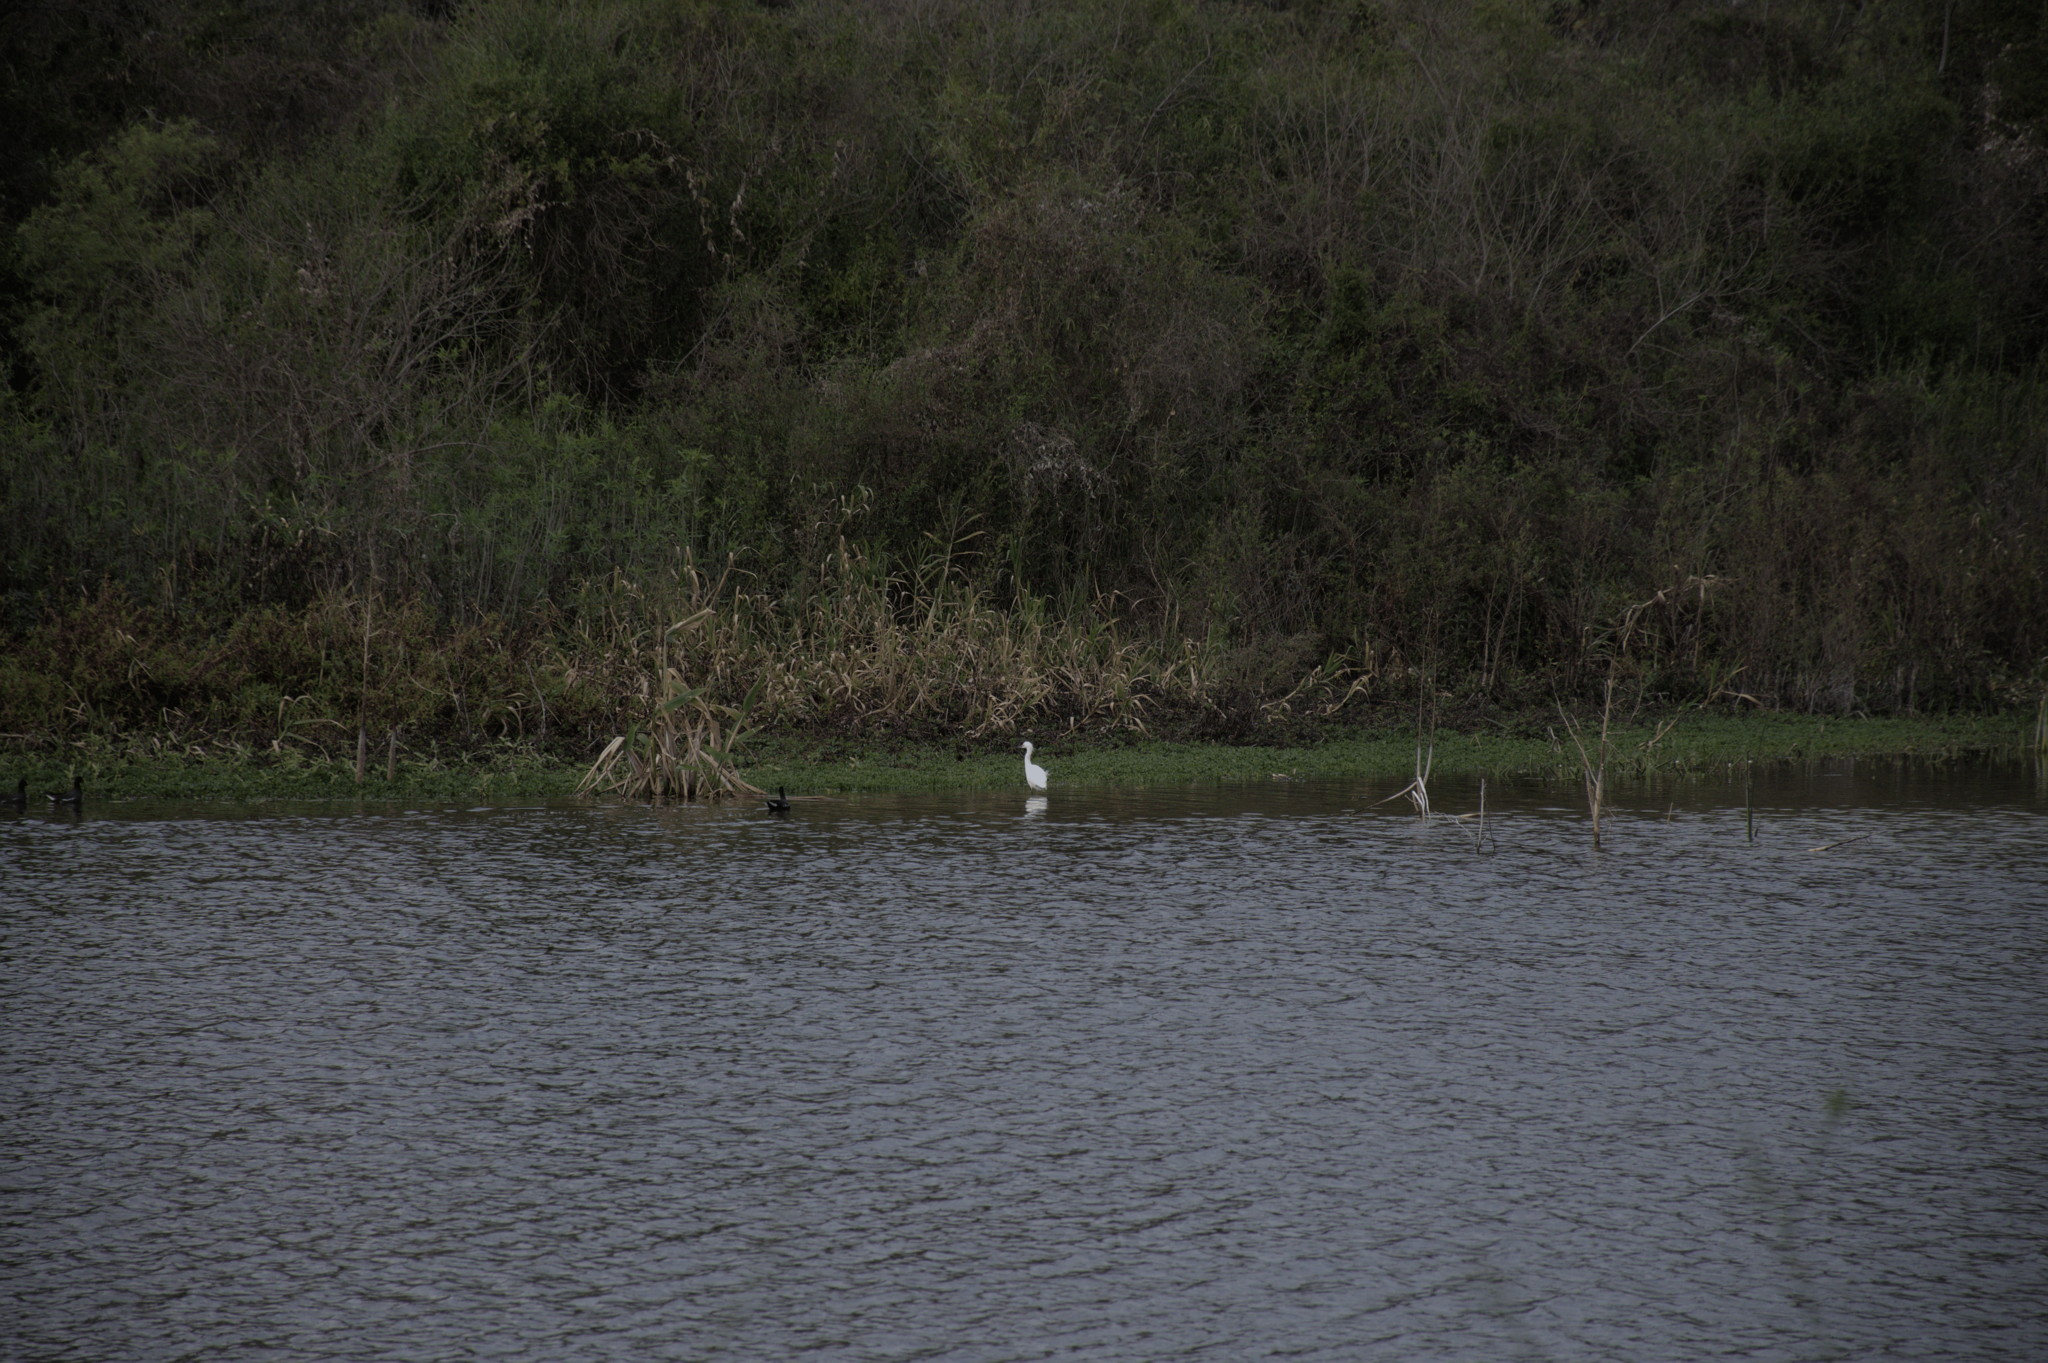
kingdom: Animalia
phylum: Chordata
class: Aves
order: Pelecaniformes
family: Ardeidae
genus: Egretta
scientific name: Egretta thula
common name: Snowy egret
